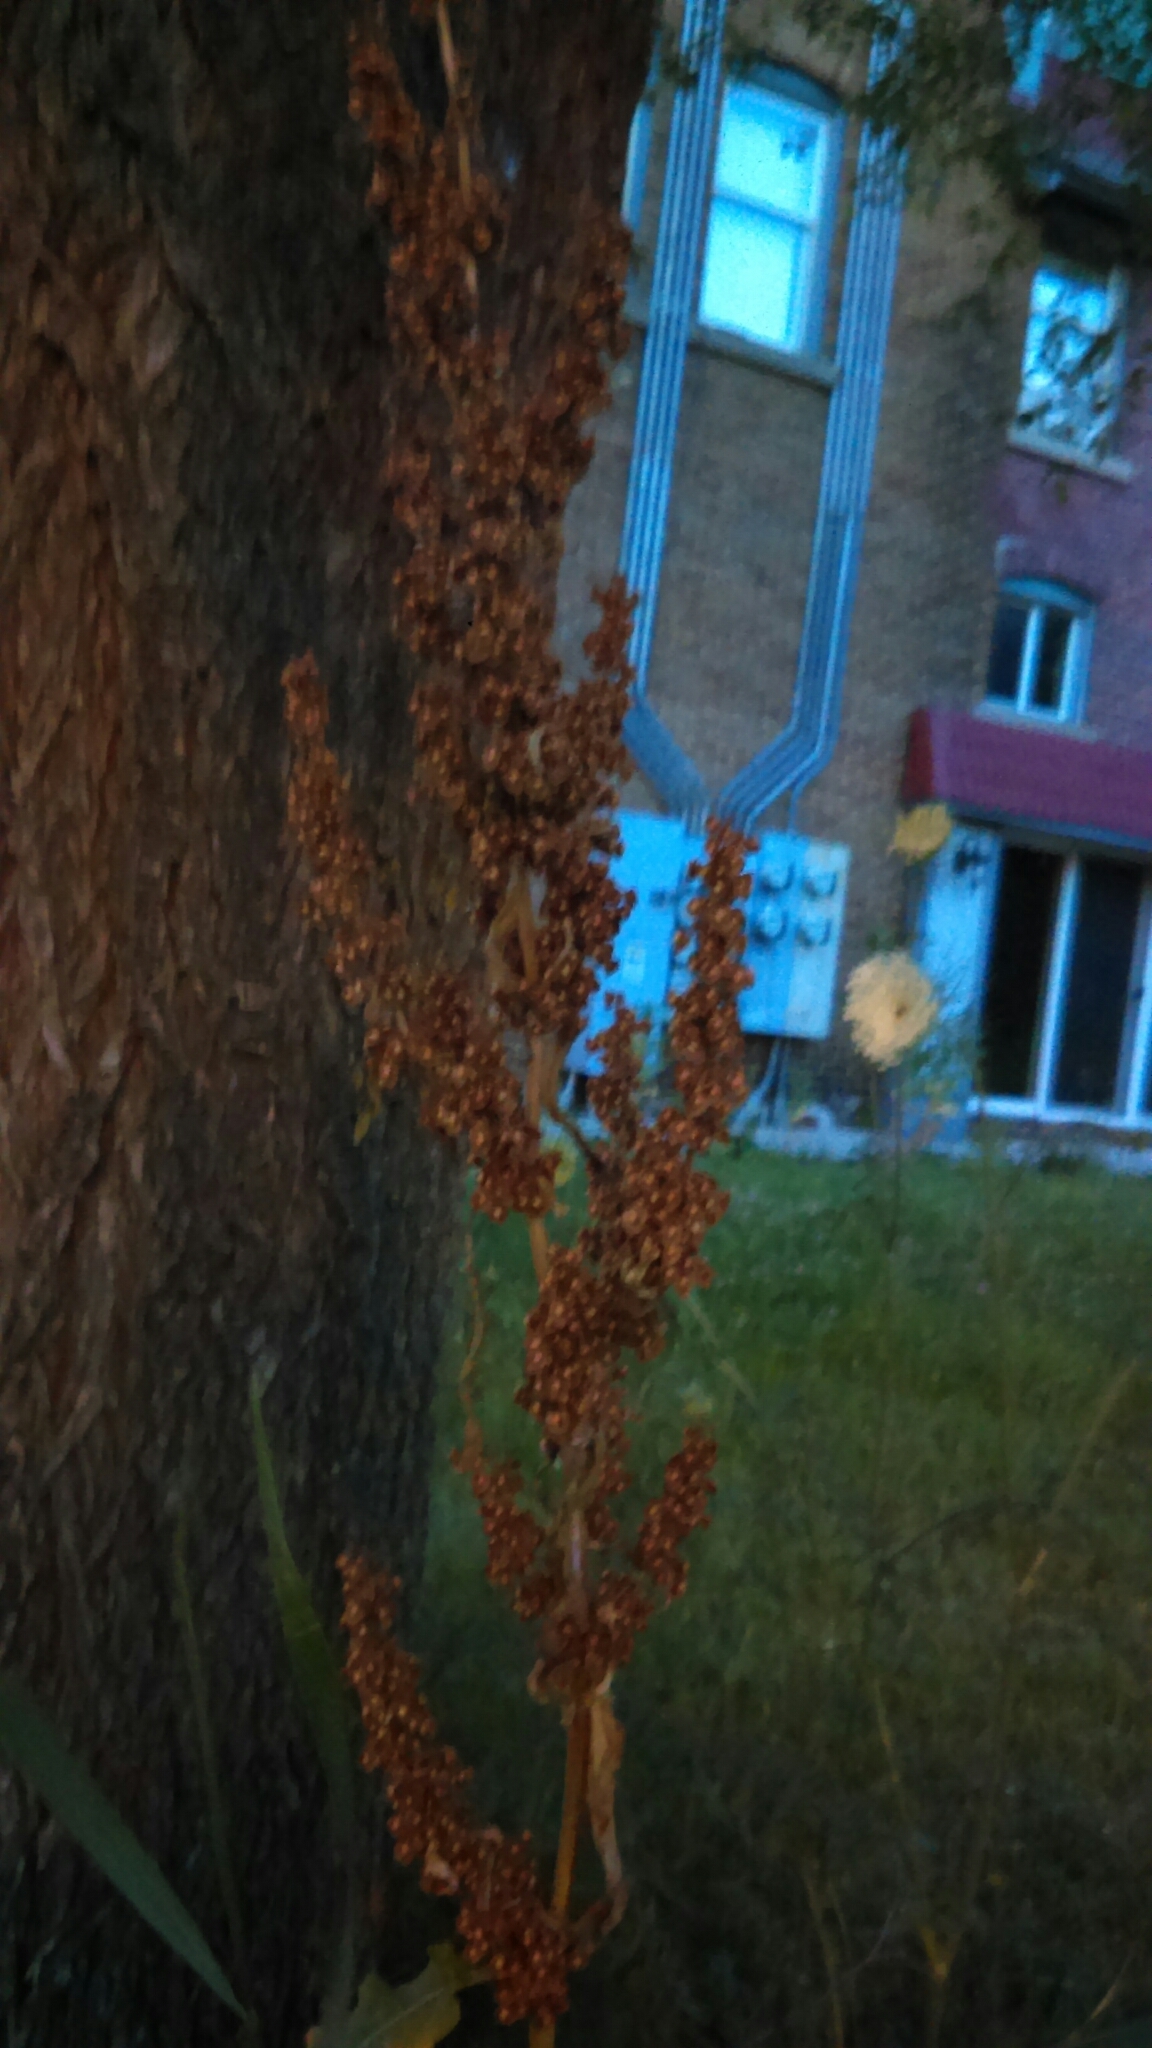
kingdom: Plantae
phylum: Tracheophyta
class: Magnoliopsida
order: Caryophyllales
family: Polygonaceae
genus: Rumex
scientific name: Rumex crispus
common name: Curled dock
